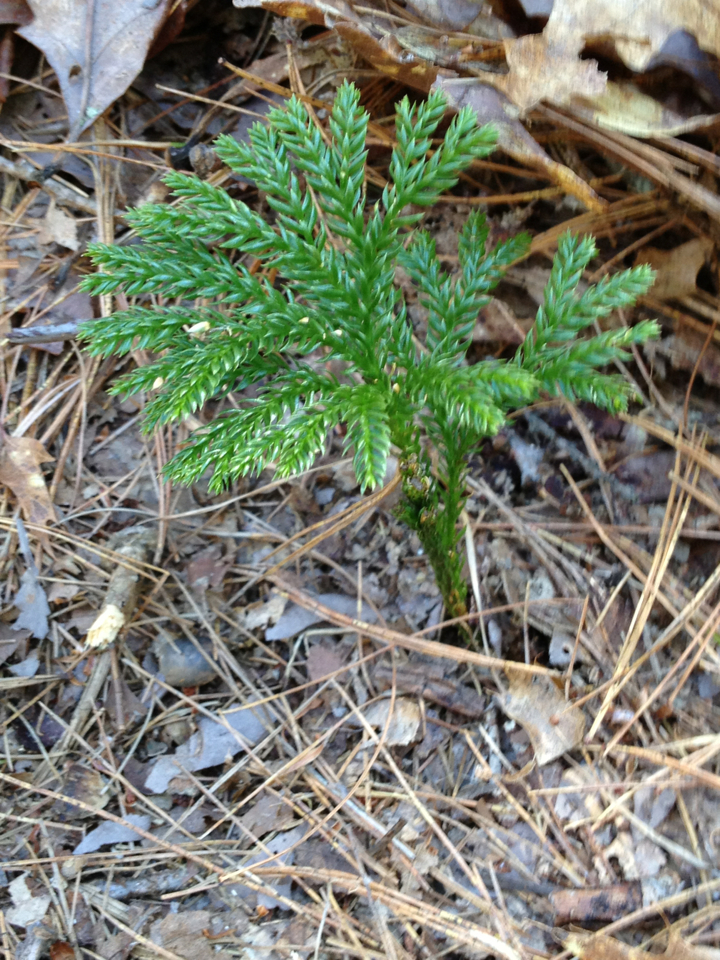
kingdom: Plantae
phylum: Tracheophyta
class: Lycopodiopsida
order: Lycopodiales
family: Lycopodiaceae
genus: Dendrolycopodium
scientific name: Dendrolycopodium obscurum
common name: Common ground-pine
